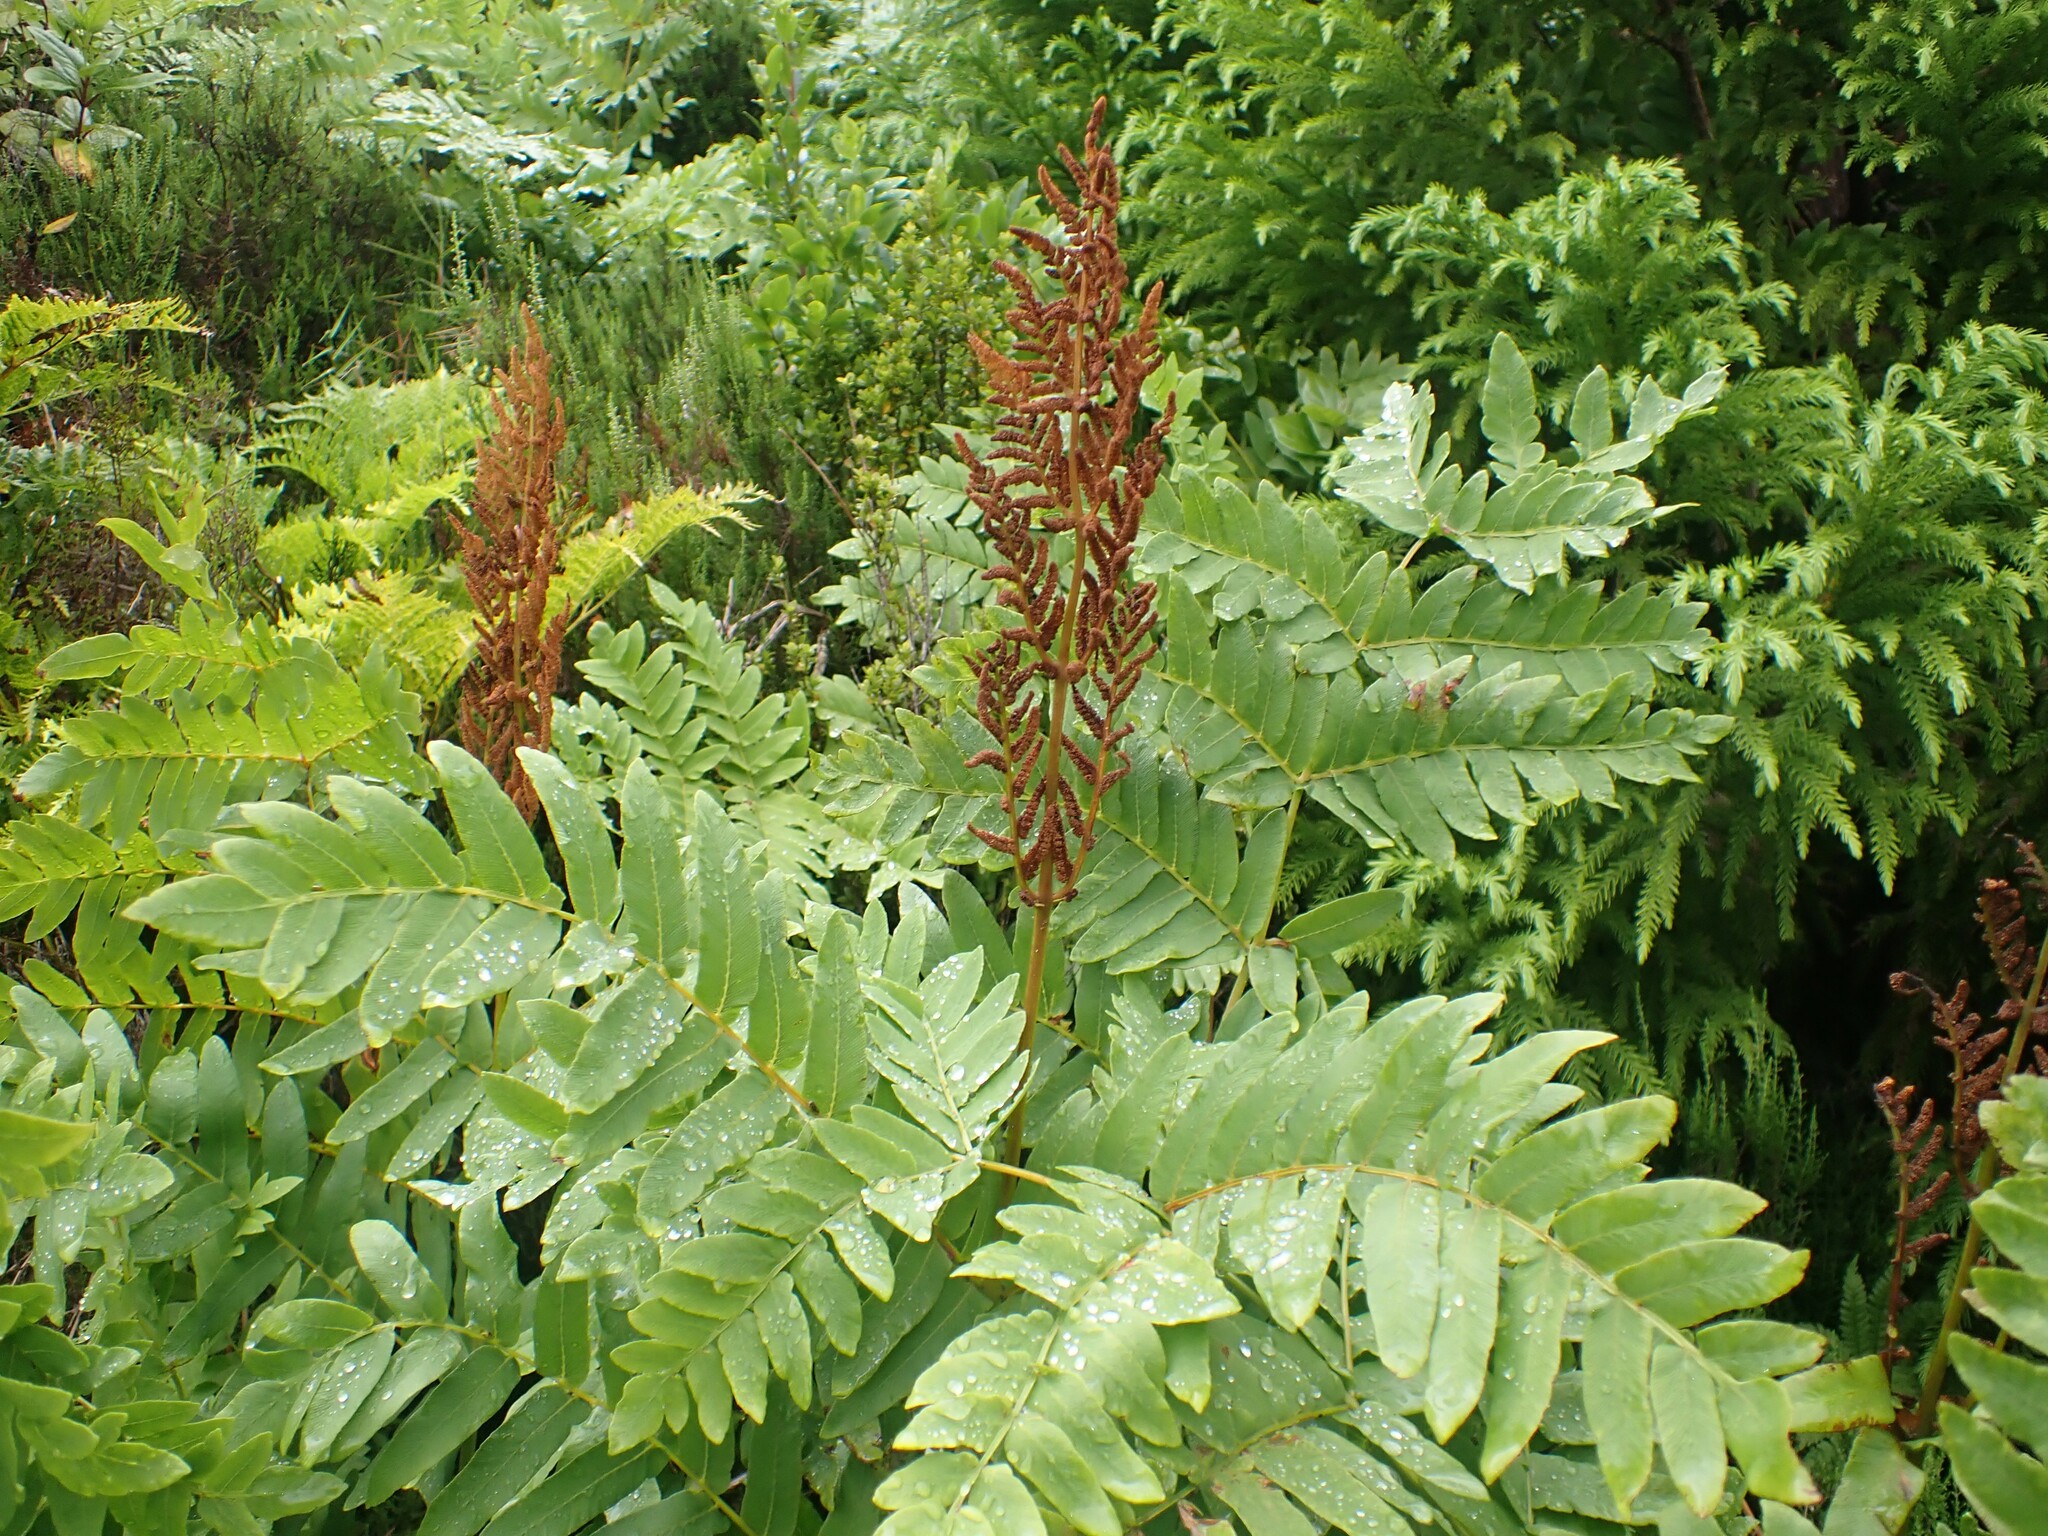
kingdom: Plantae
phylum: Tracheophyta
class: Polypodiopsida
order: Osmundales
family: Osmundaceae
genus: Osmunda
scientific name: Osmunda regalis
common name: Royal fern
